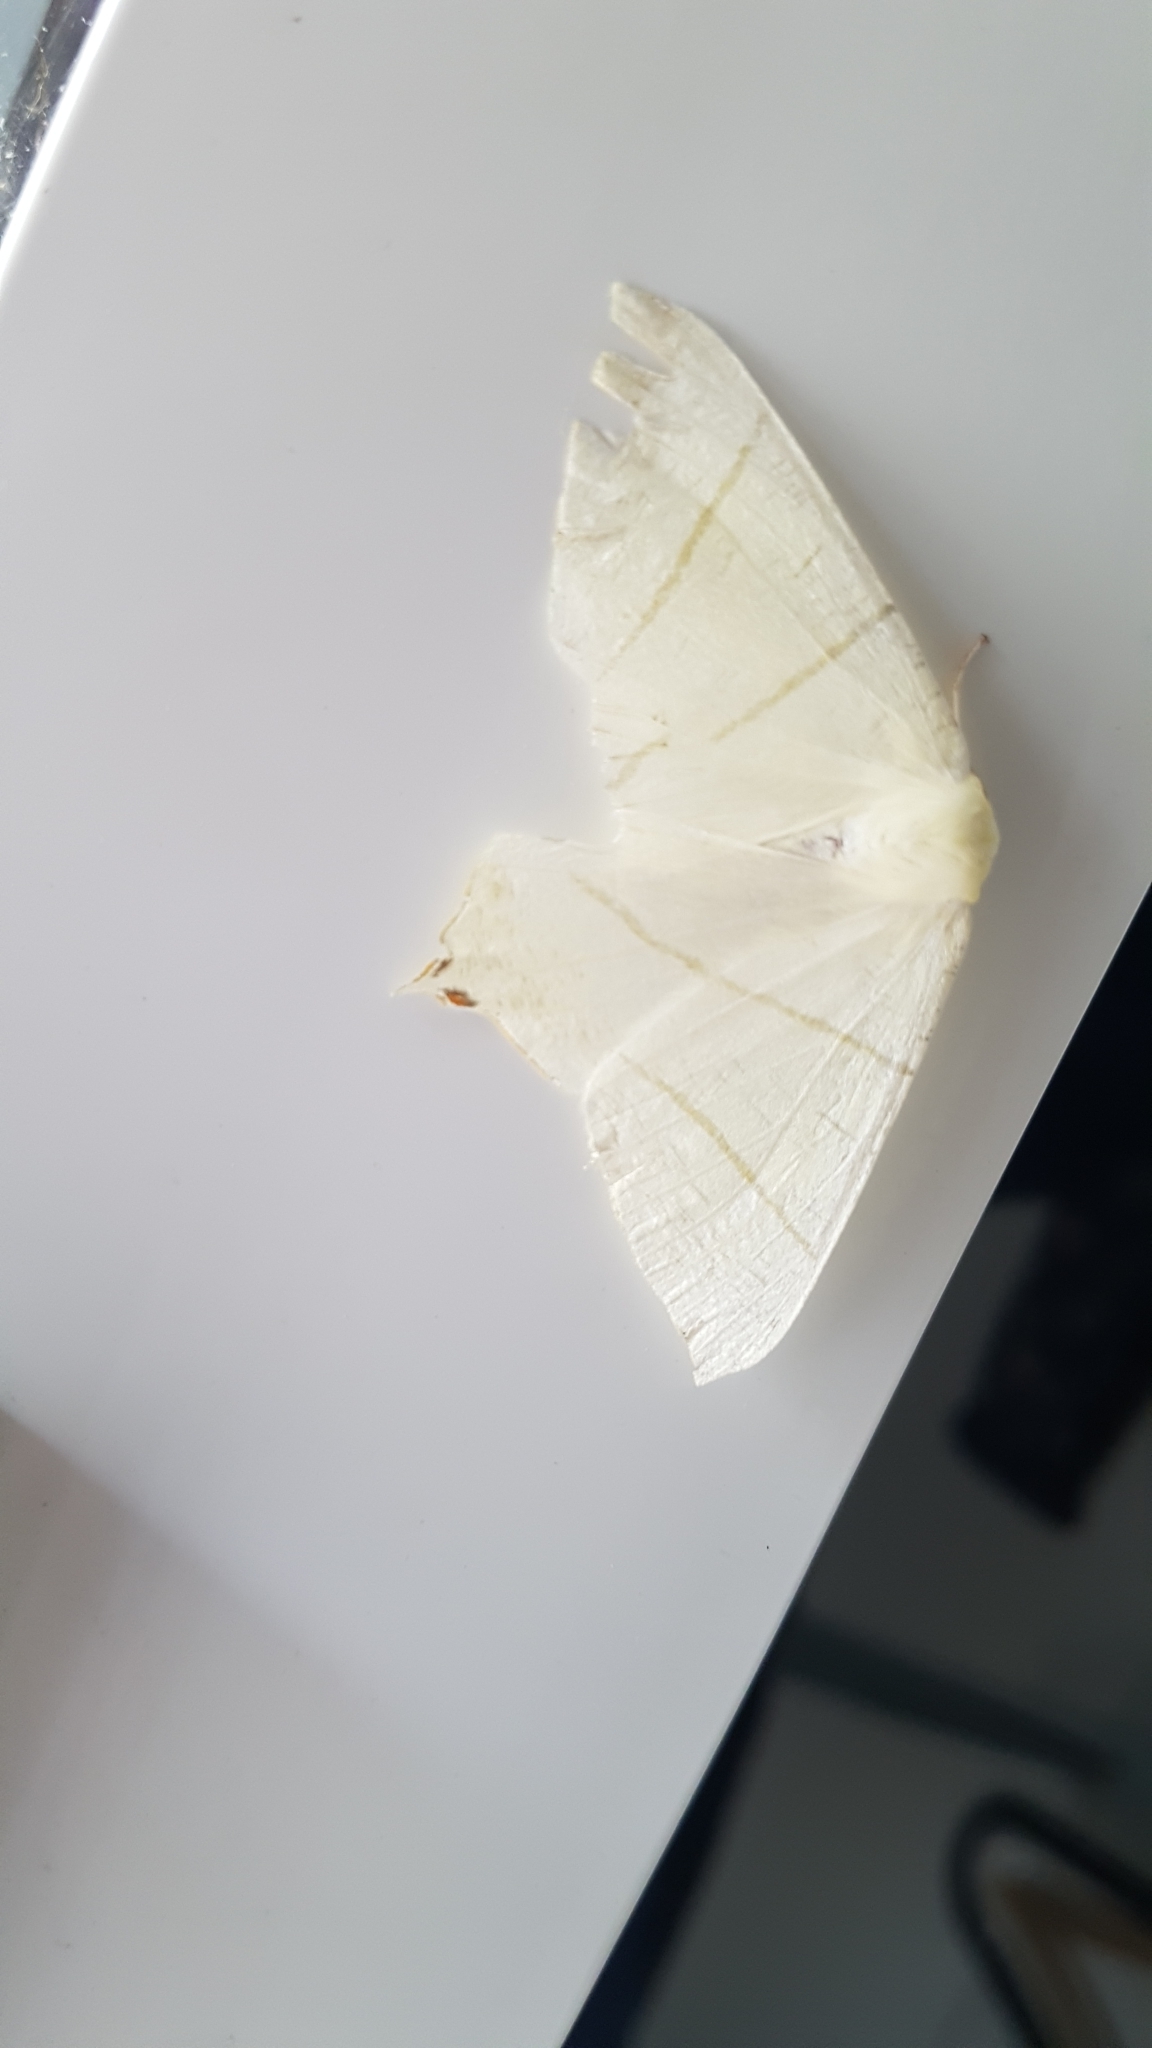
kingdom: Animalia
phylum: Arthropoda
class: Insecta
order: Lepidoptera
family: Geometridae
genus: Ourapteryx
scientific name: Ourapteryx sambucaria
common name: Swallow-tailed moth
